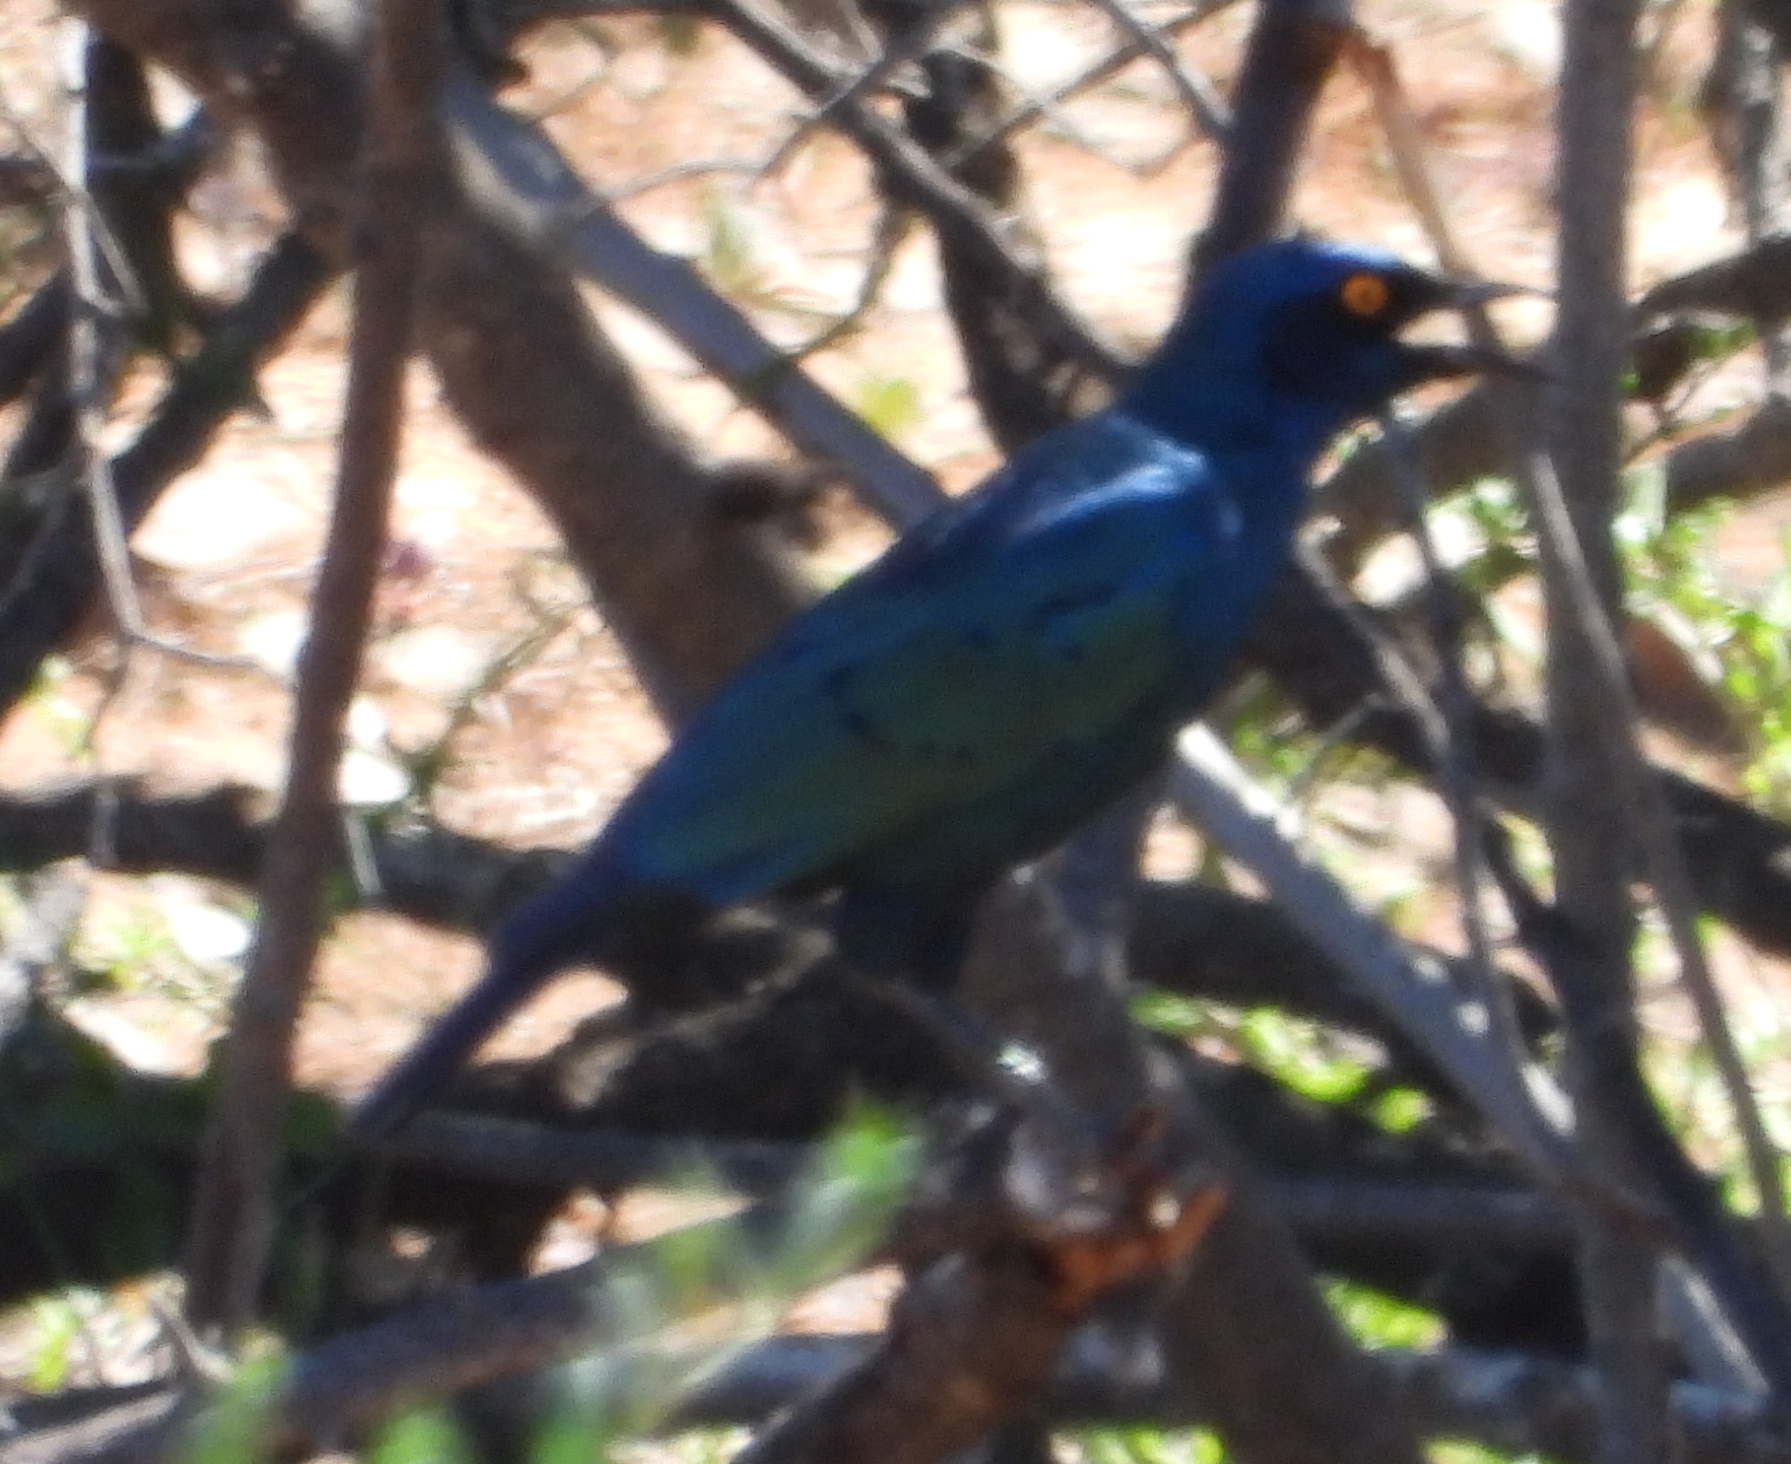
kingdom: Animalia
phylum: Chordata
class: Aves
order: Passeriformes
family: Sturnidae
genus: Lamprotornis
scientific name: Lamprotornis nitens
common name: Cape starling
